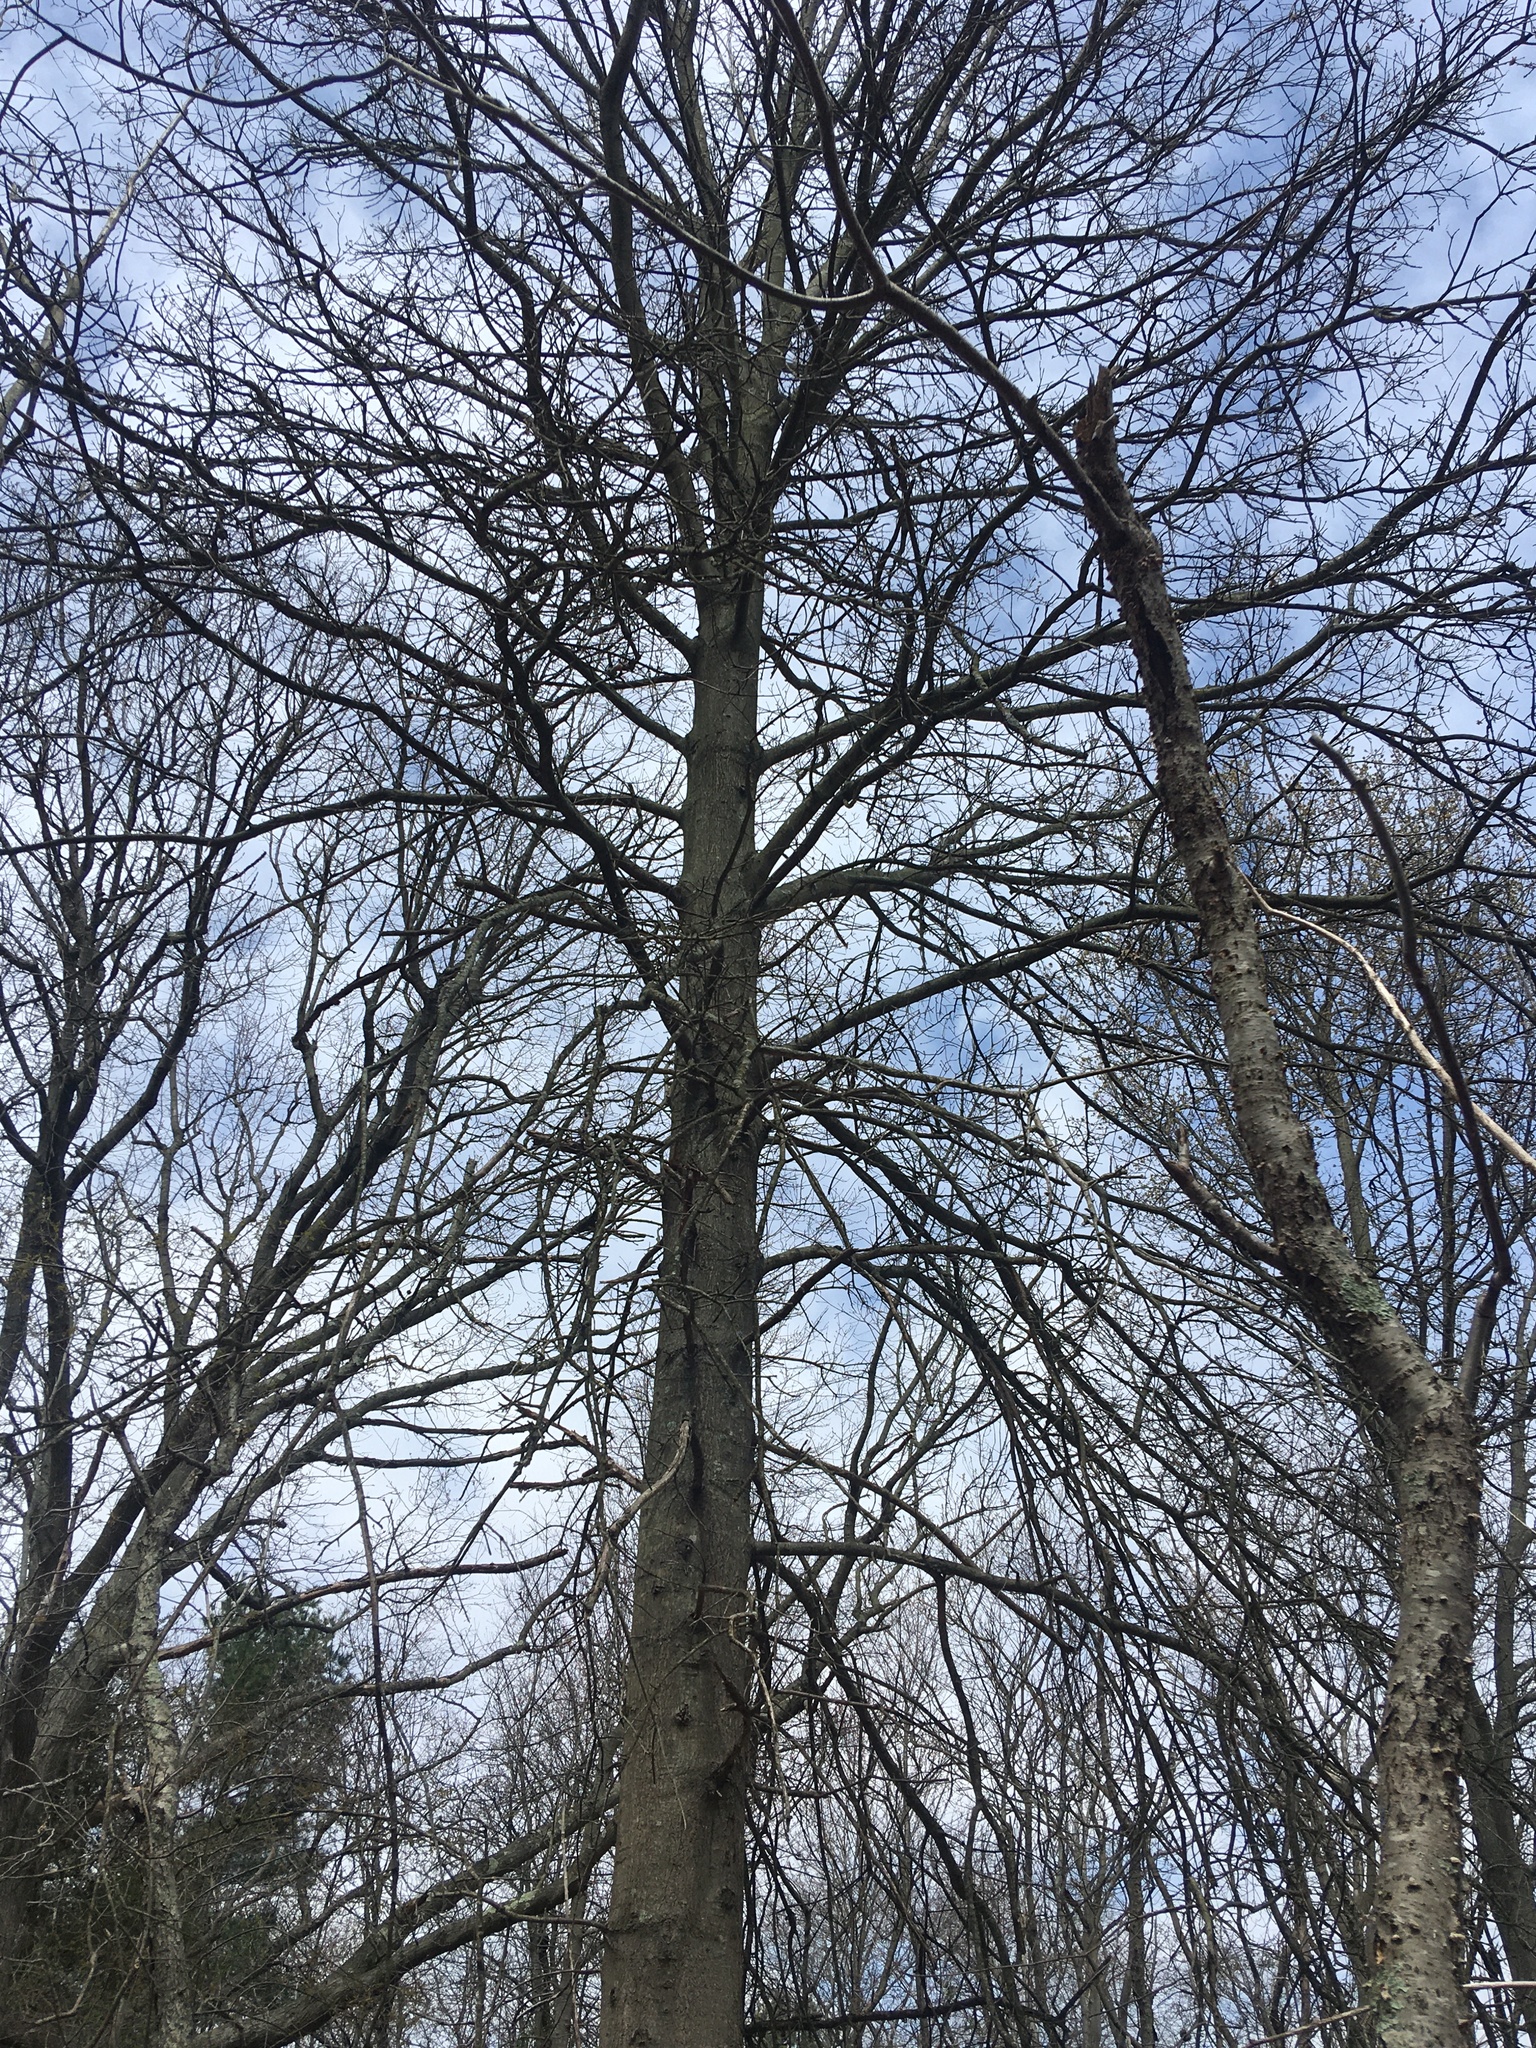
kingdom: Plantae
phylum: Tracheophyta
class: Magnoliopsida
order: Fagales
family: Fagaceae
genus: Quercus
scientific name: Quercus palustris
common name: Pin oak
